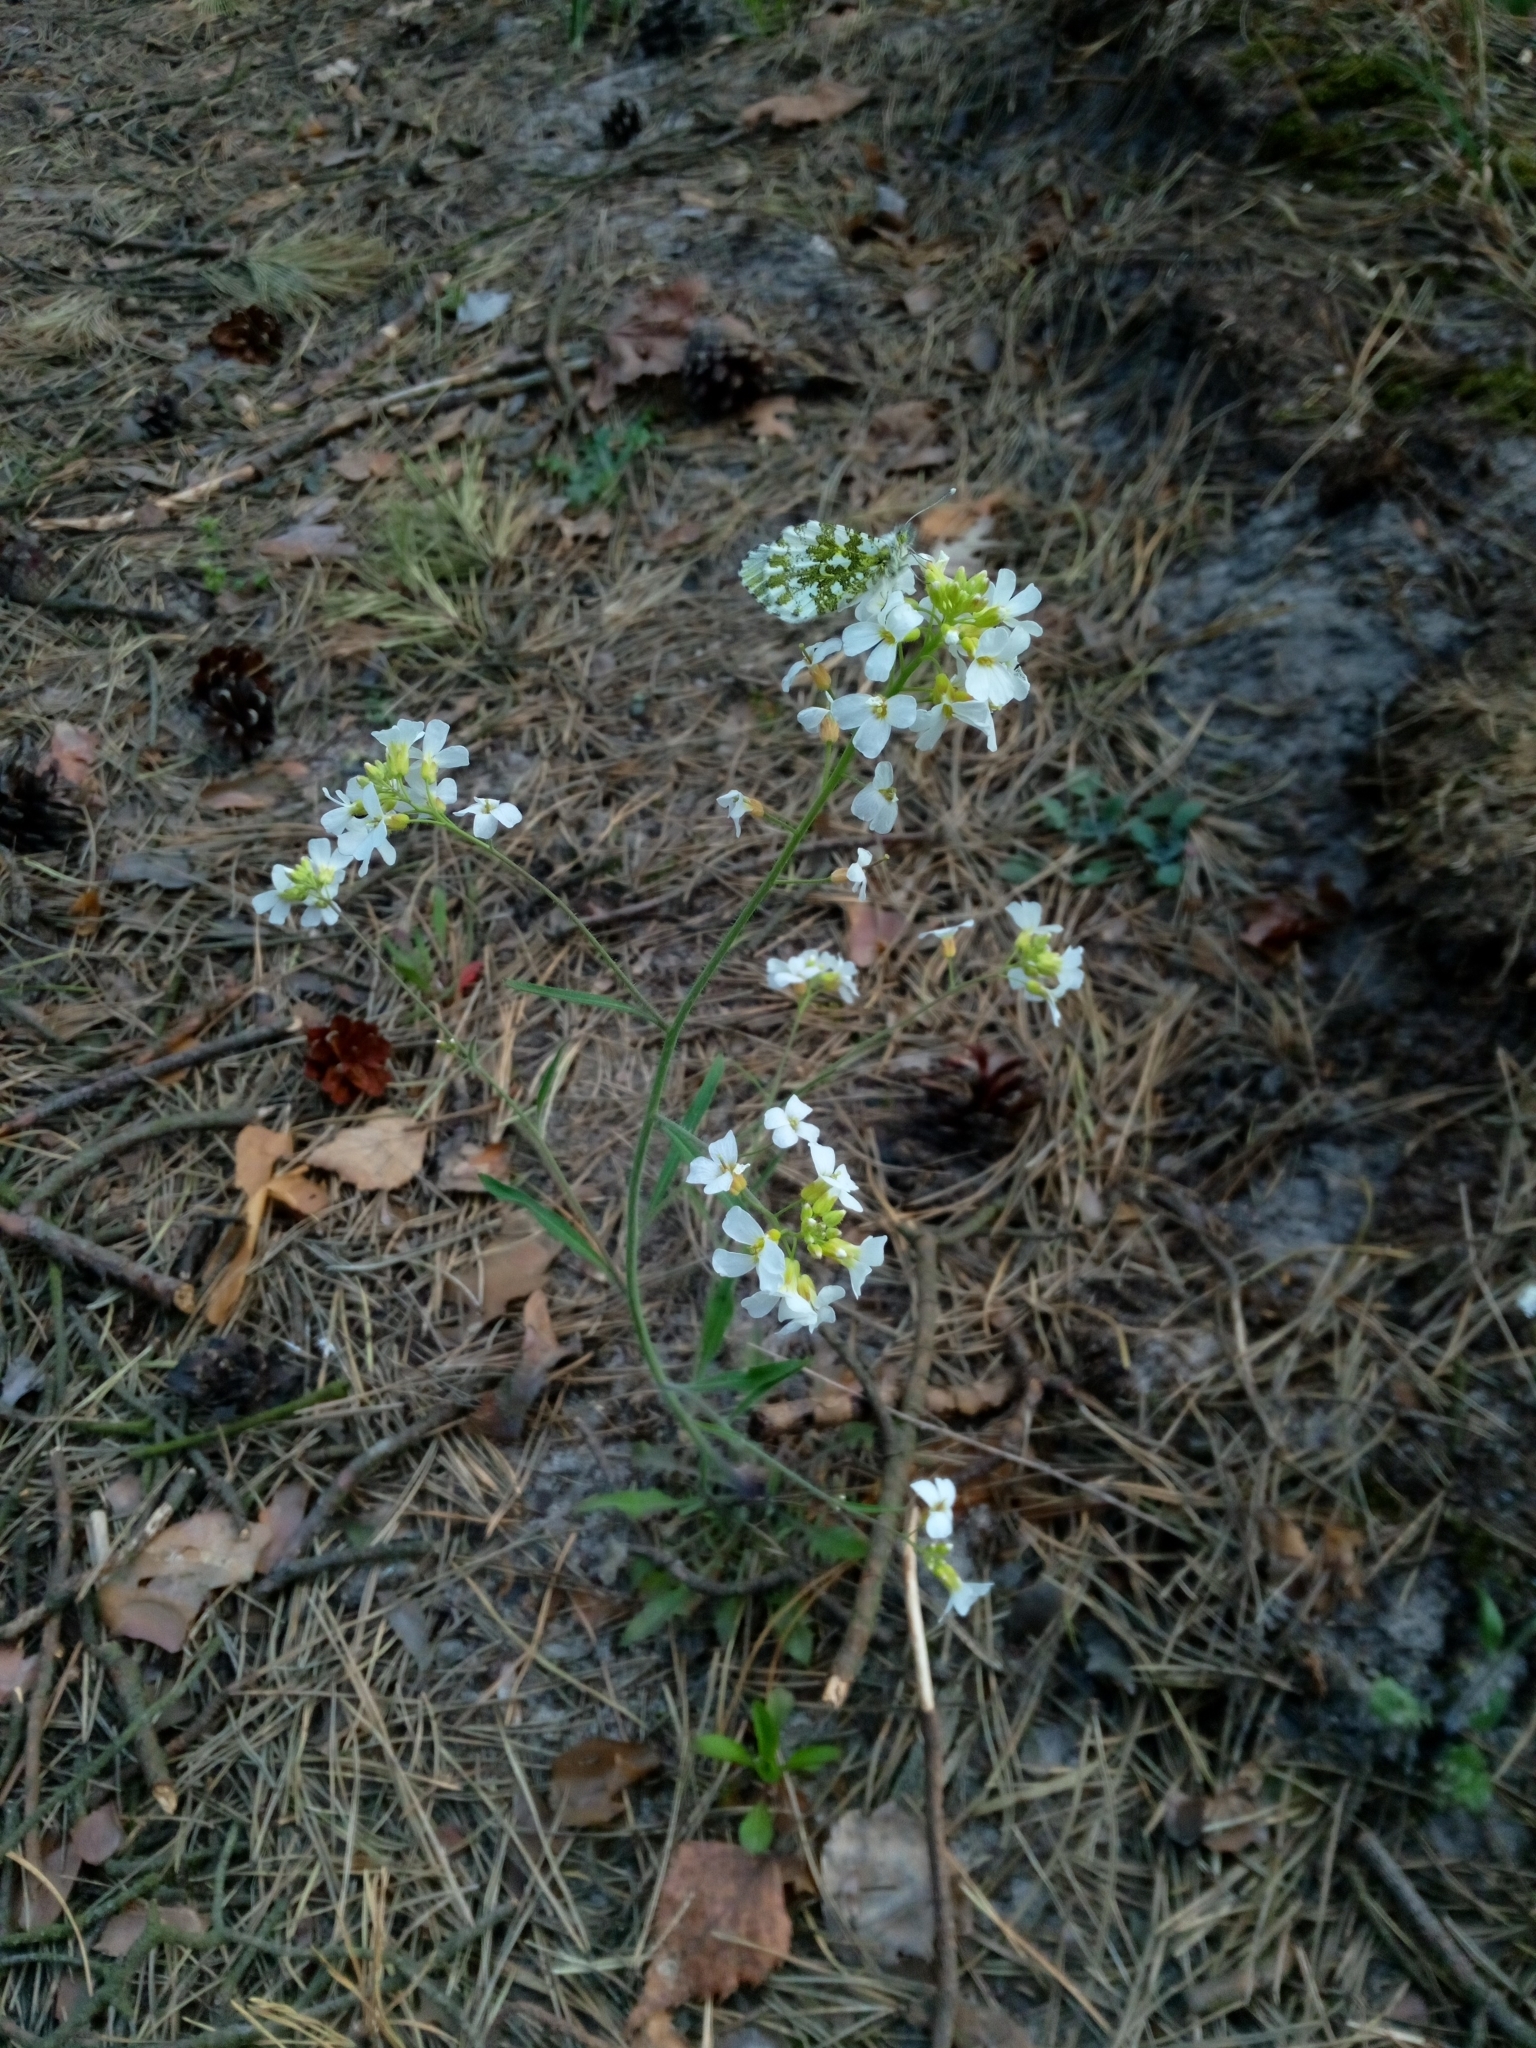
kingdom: Animalia
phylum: Arthropoda
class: Insecta
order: Lepidoptera
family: Pieridae
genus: Anthocharis
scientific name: Anthocharis cardamines
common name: Orange-tip
